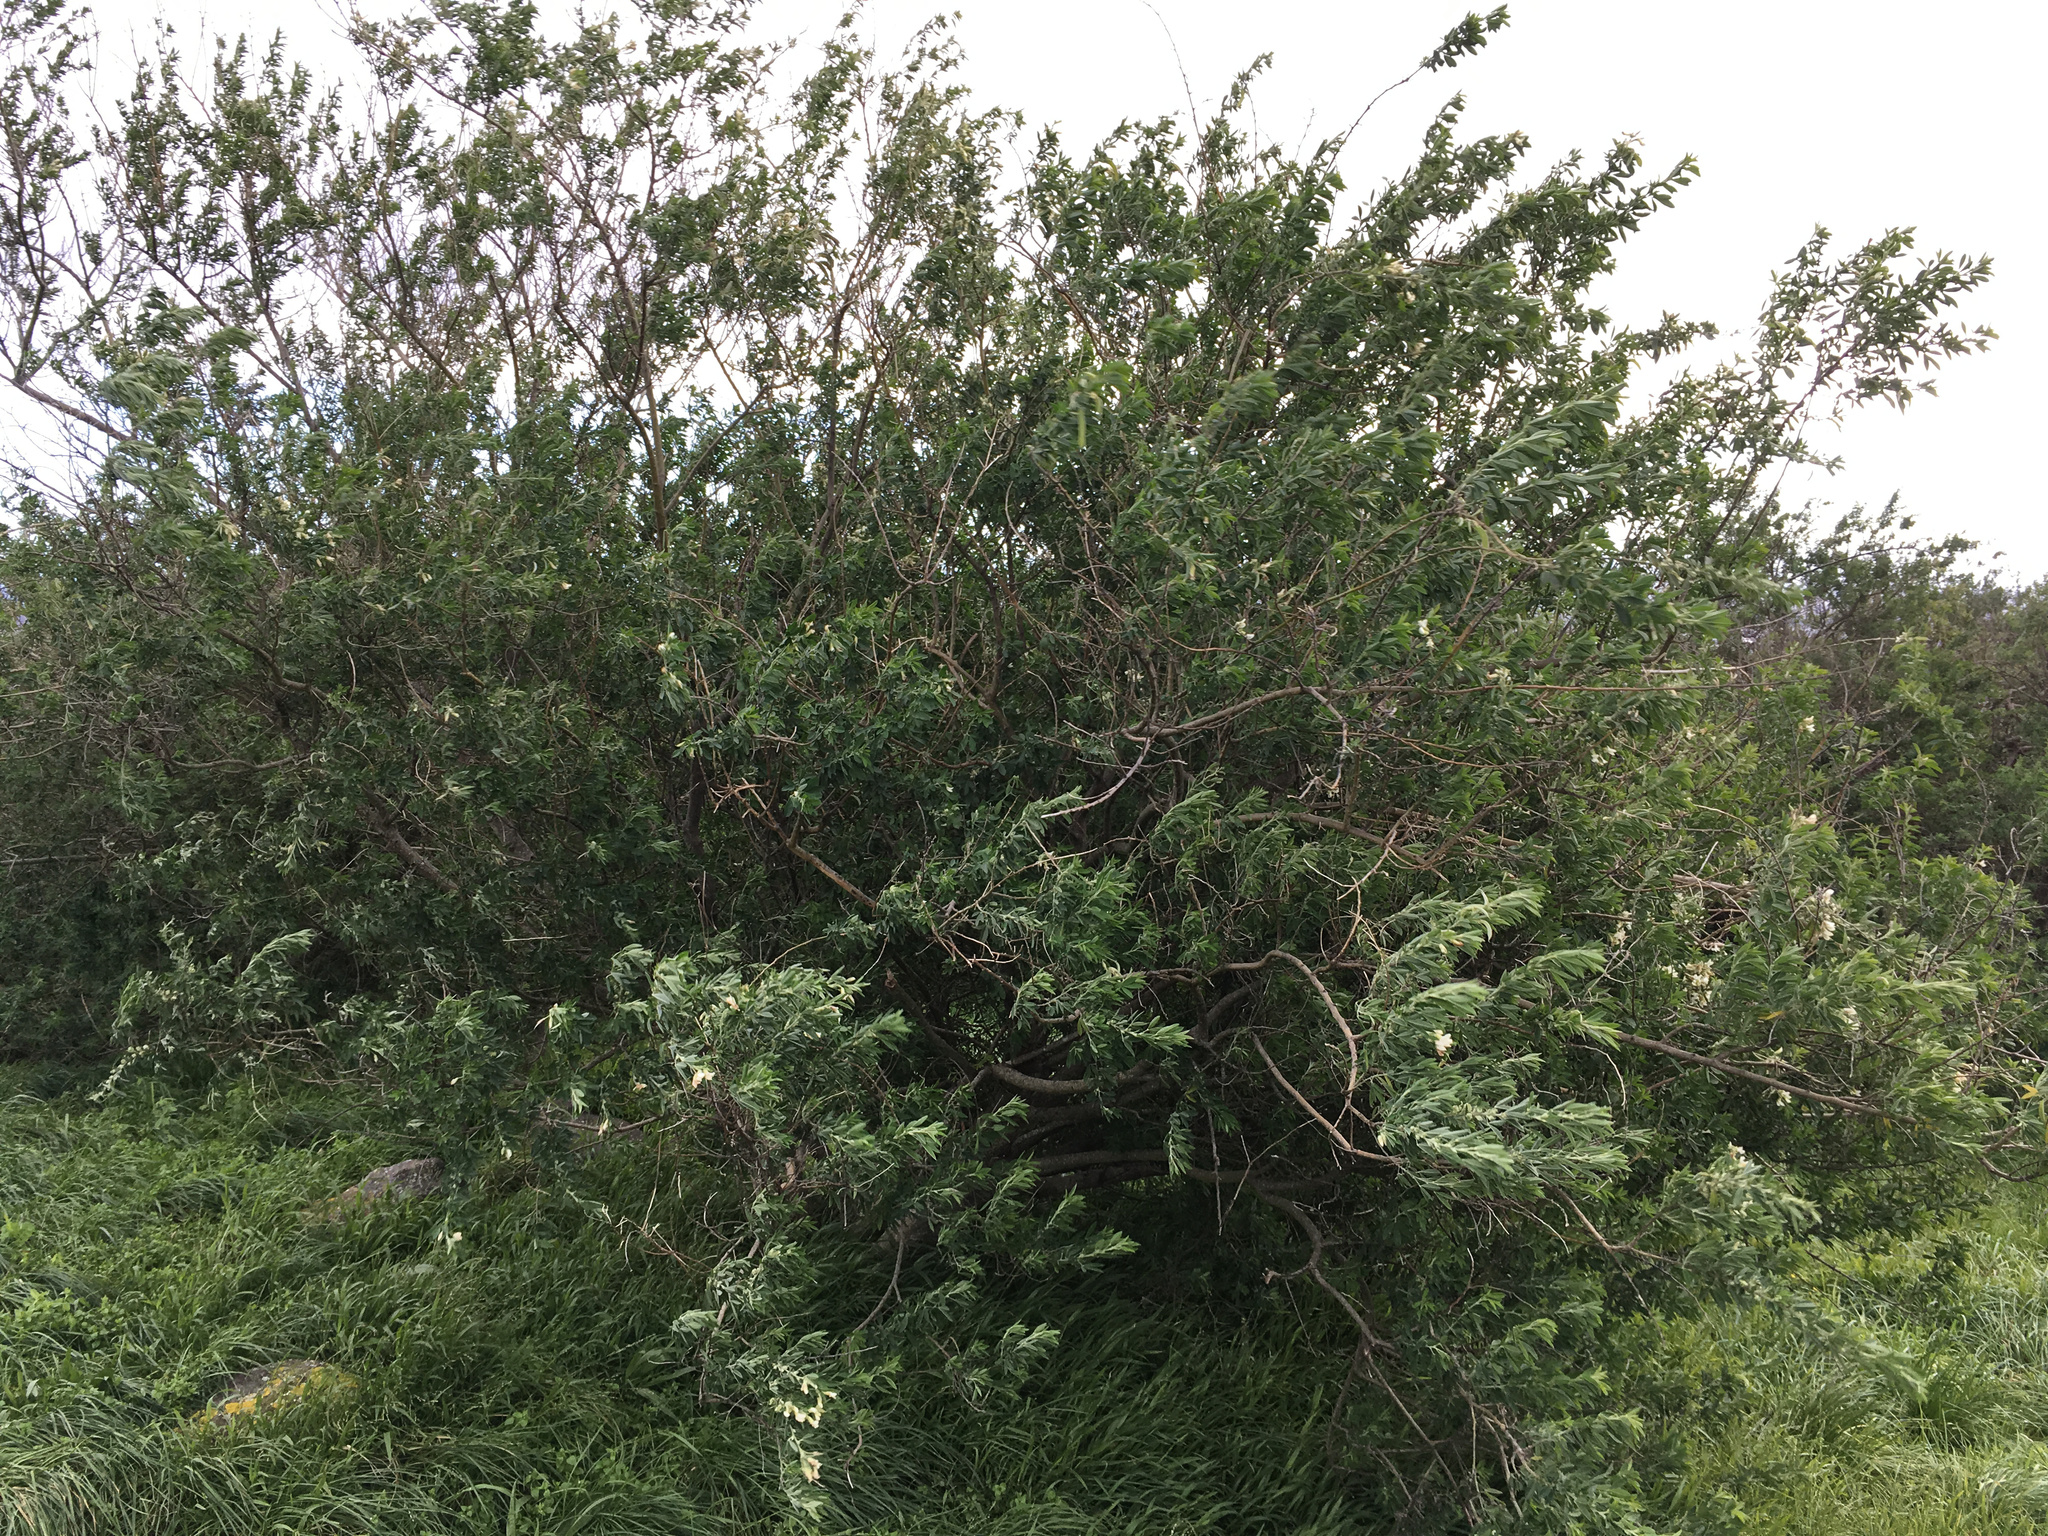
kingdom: Plantae
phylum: Tracheophyta
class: Magnoliopsida
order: Fabales
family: Fabaceae
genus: Chamaecytisus
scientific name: Chamaecytisus prolifer
